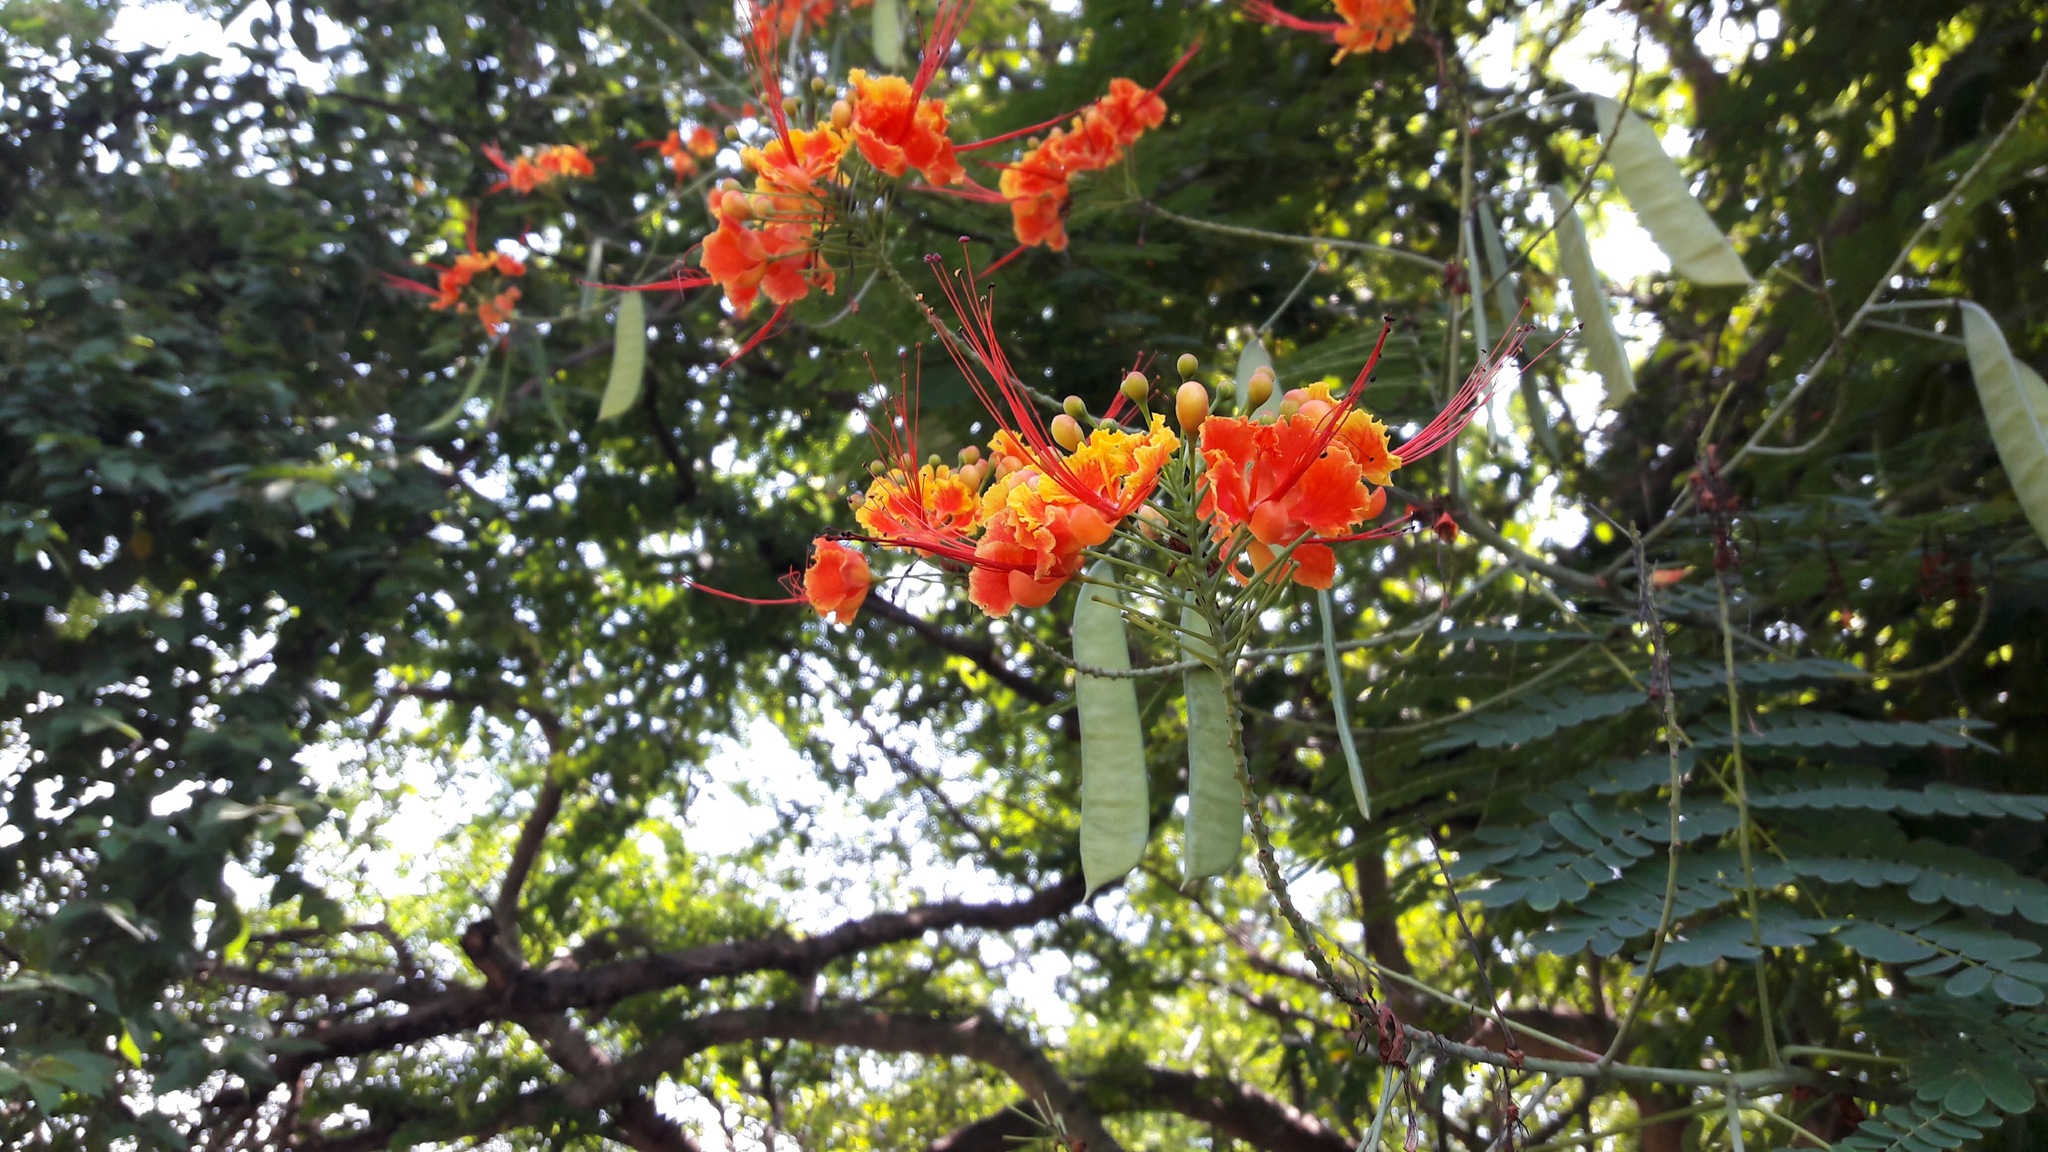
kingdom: Plantae
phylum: Tracheophyta
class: Magnoliopsida
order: Fabales
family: Fabaceae
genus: Caesalpinia
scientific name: Caesalpinia pulcherrima
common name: Pride-of-barbados
